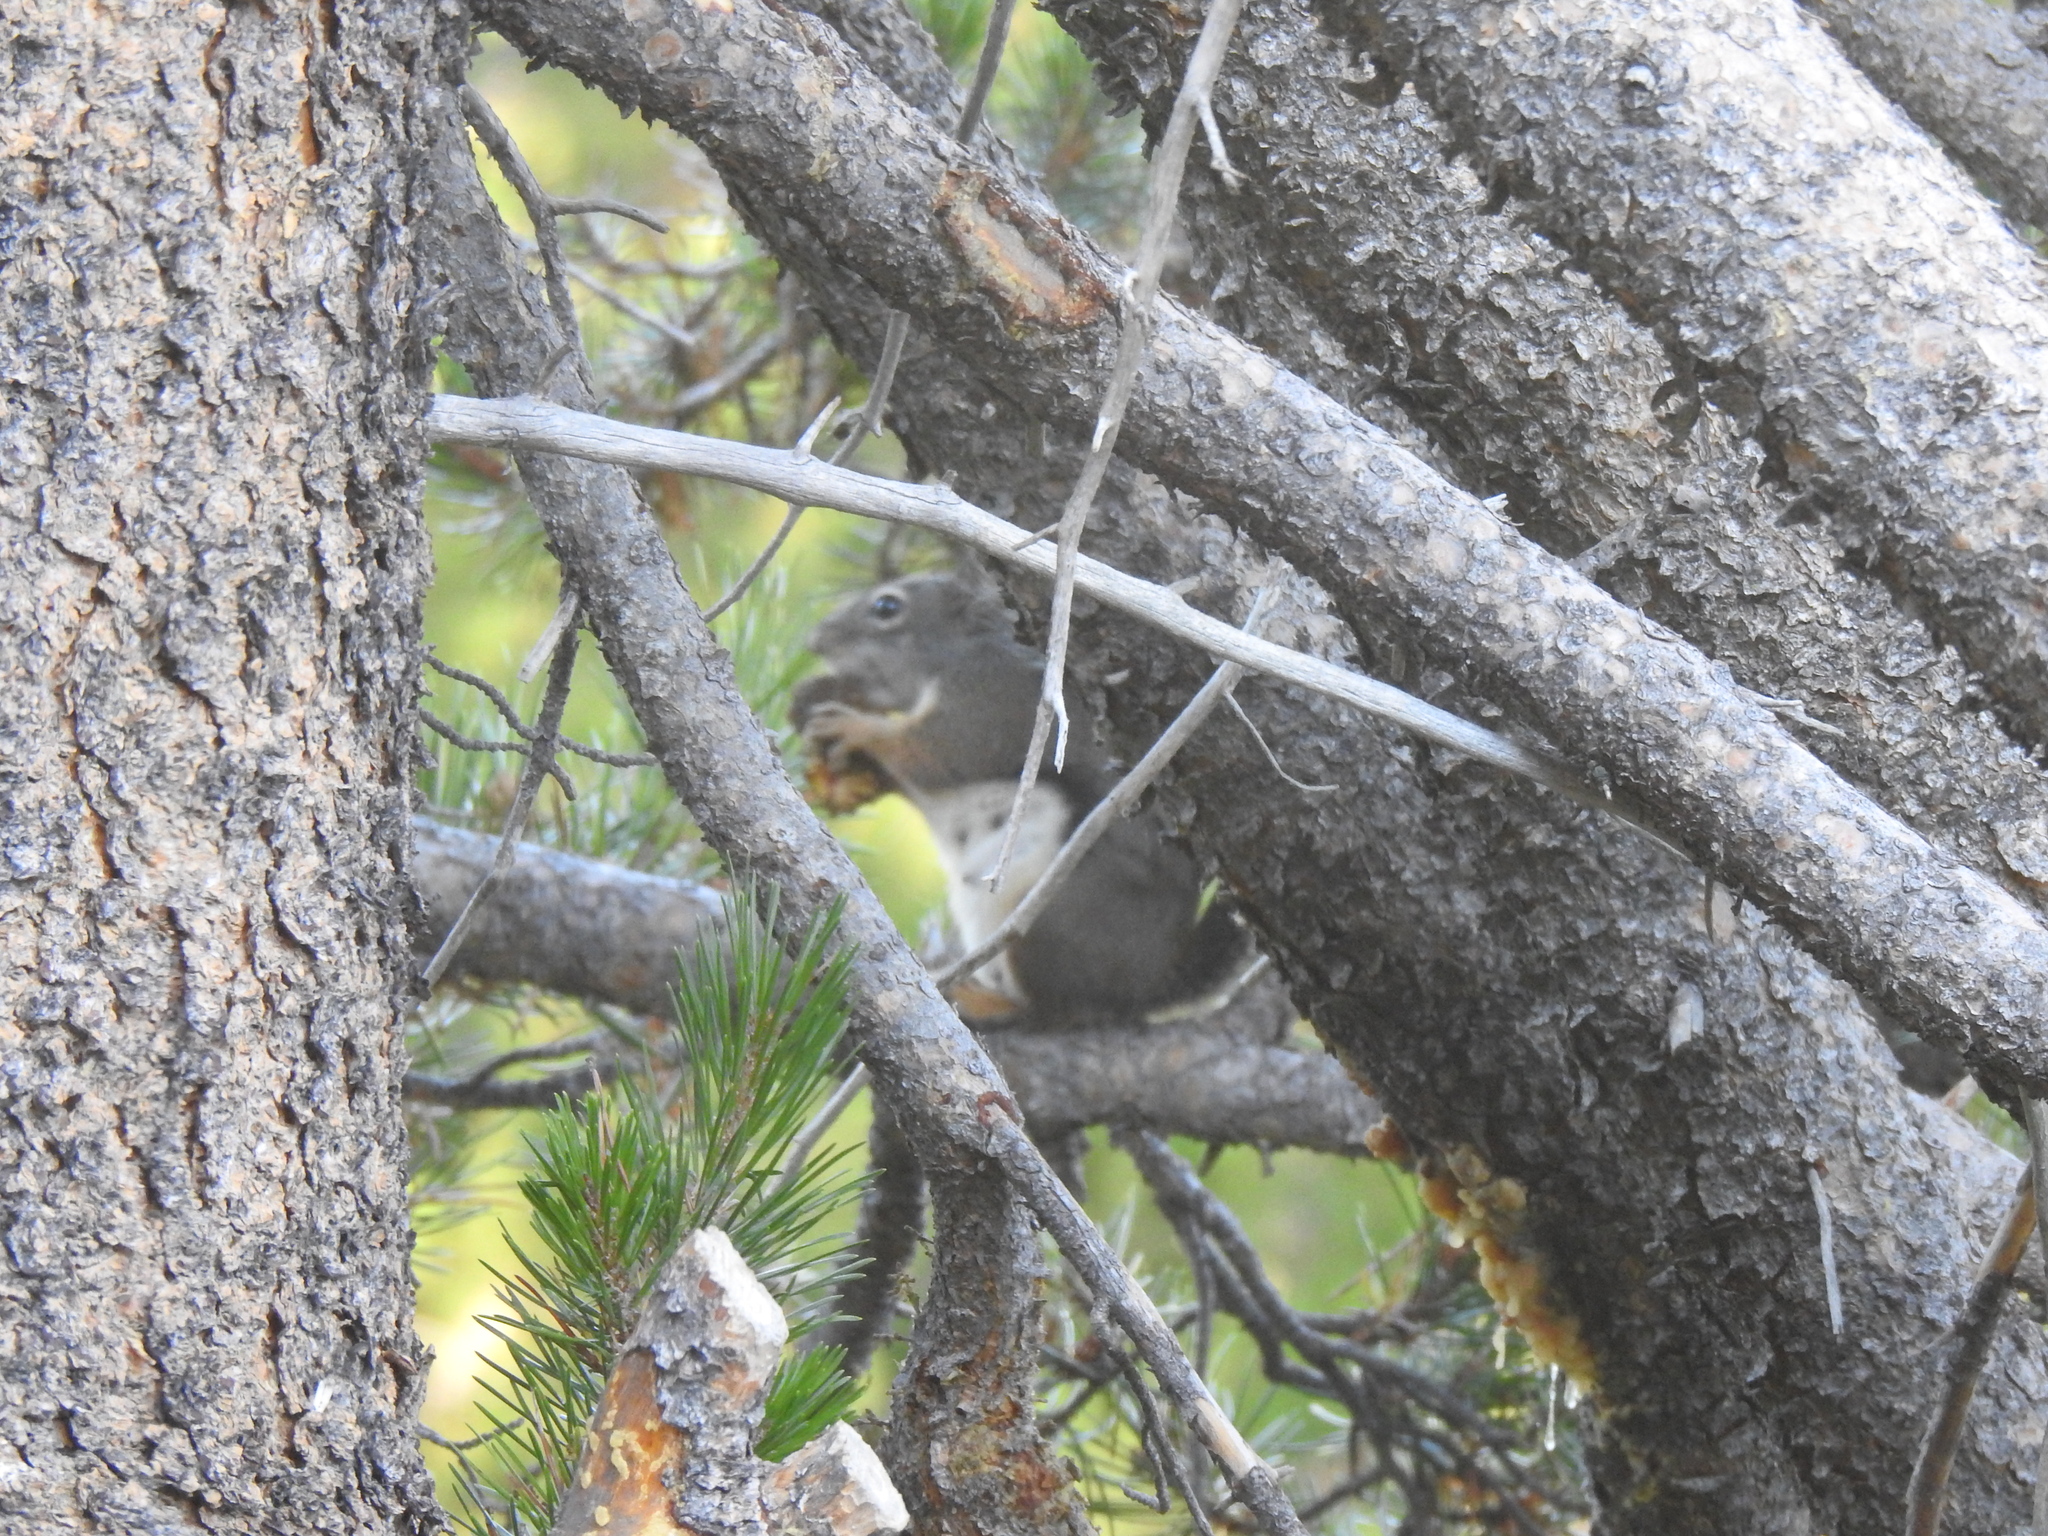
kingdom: Animalia
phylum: Chordata
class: Mammalia
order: Rodentia
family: Sciuridae
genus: Tamiasciurus
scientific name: Tamiasciurus douglasii
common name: Douglas's squirrel
